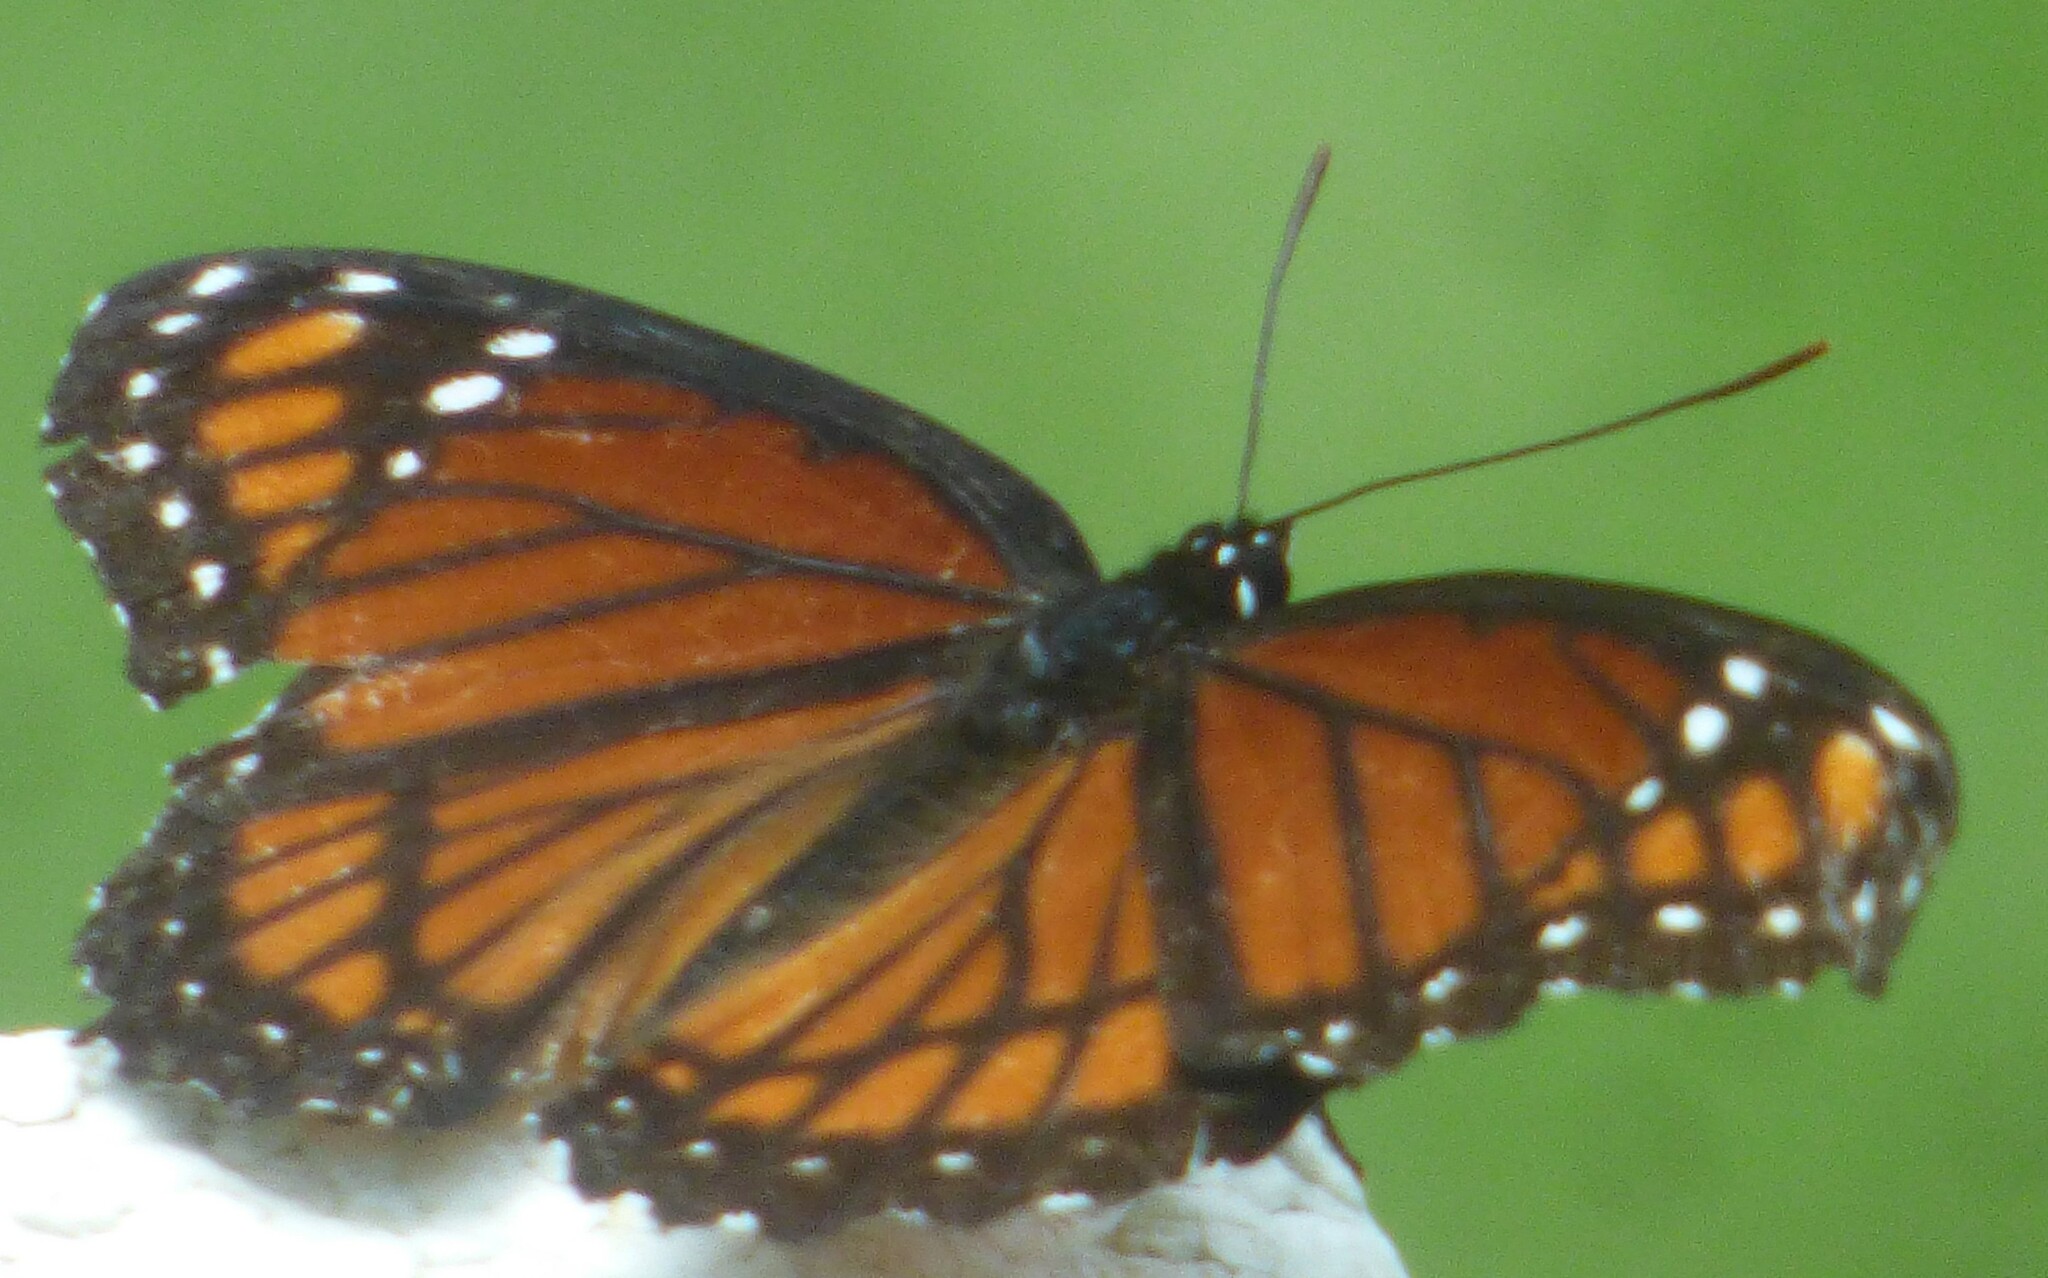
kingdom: Animalia
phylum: Arthropoda
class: Insecta
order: Lepidoptera
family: Nymphalidae
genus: Limenitis
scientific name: Limenitis archippus
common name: Viceroy
